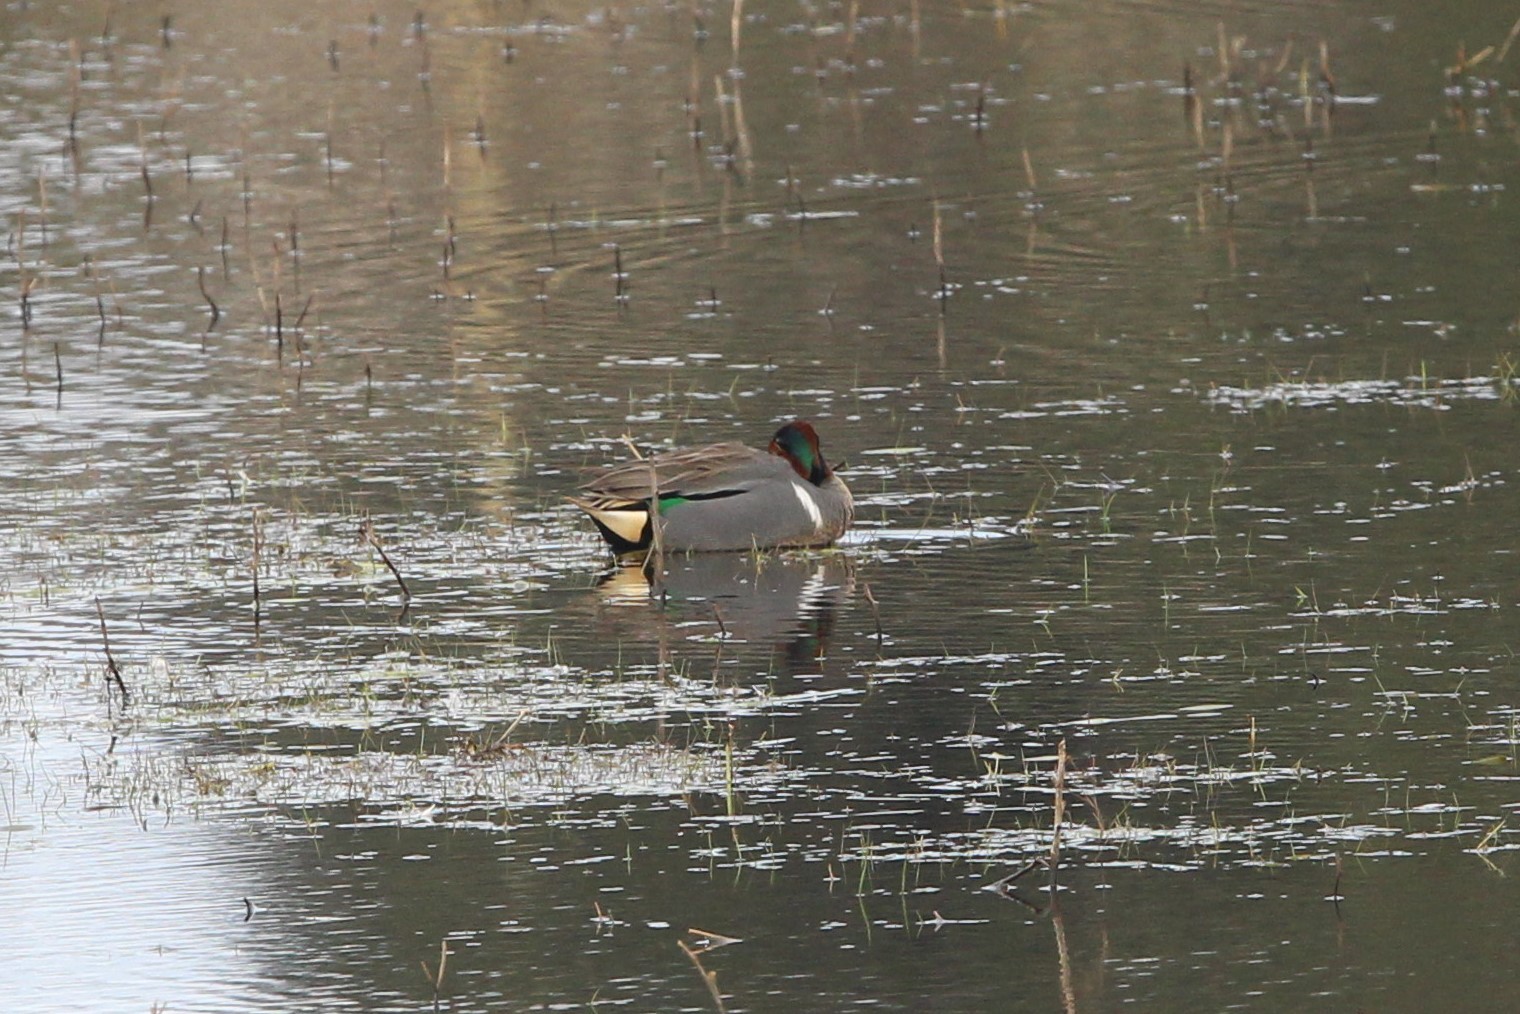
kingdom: Animalia
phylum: Chordata
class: Aves
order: Anseriformes
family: Anatidae
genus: Anas
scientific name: Anas carolinensis
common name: Green-winged teal
